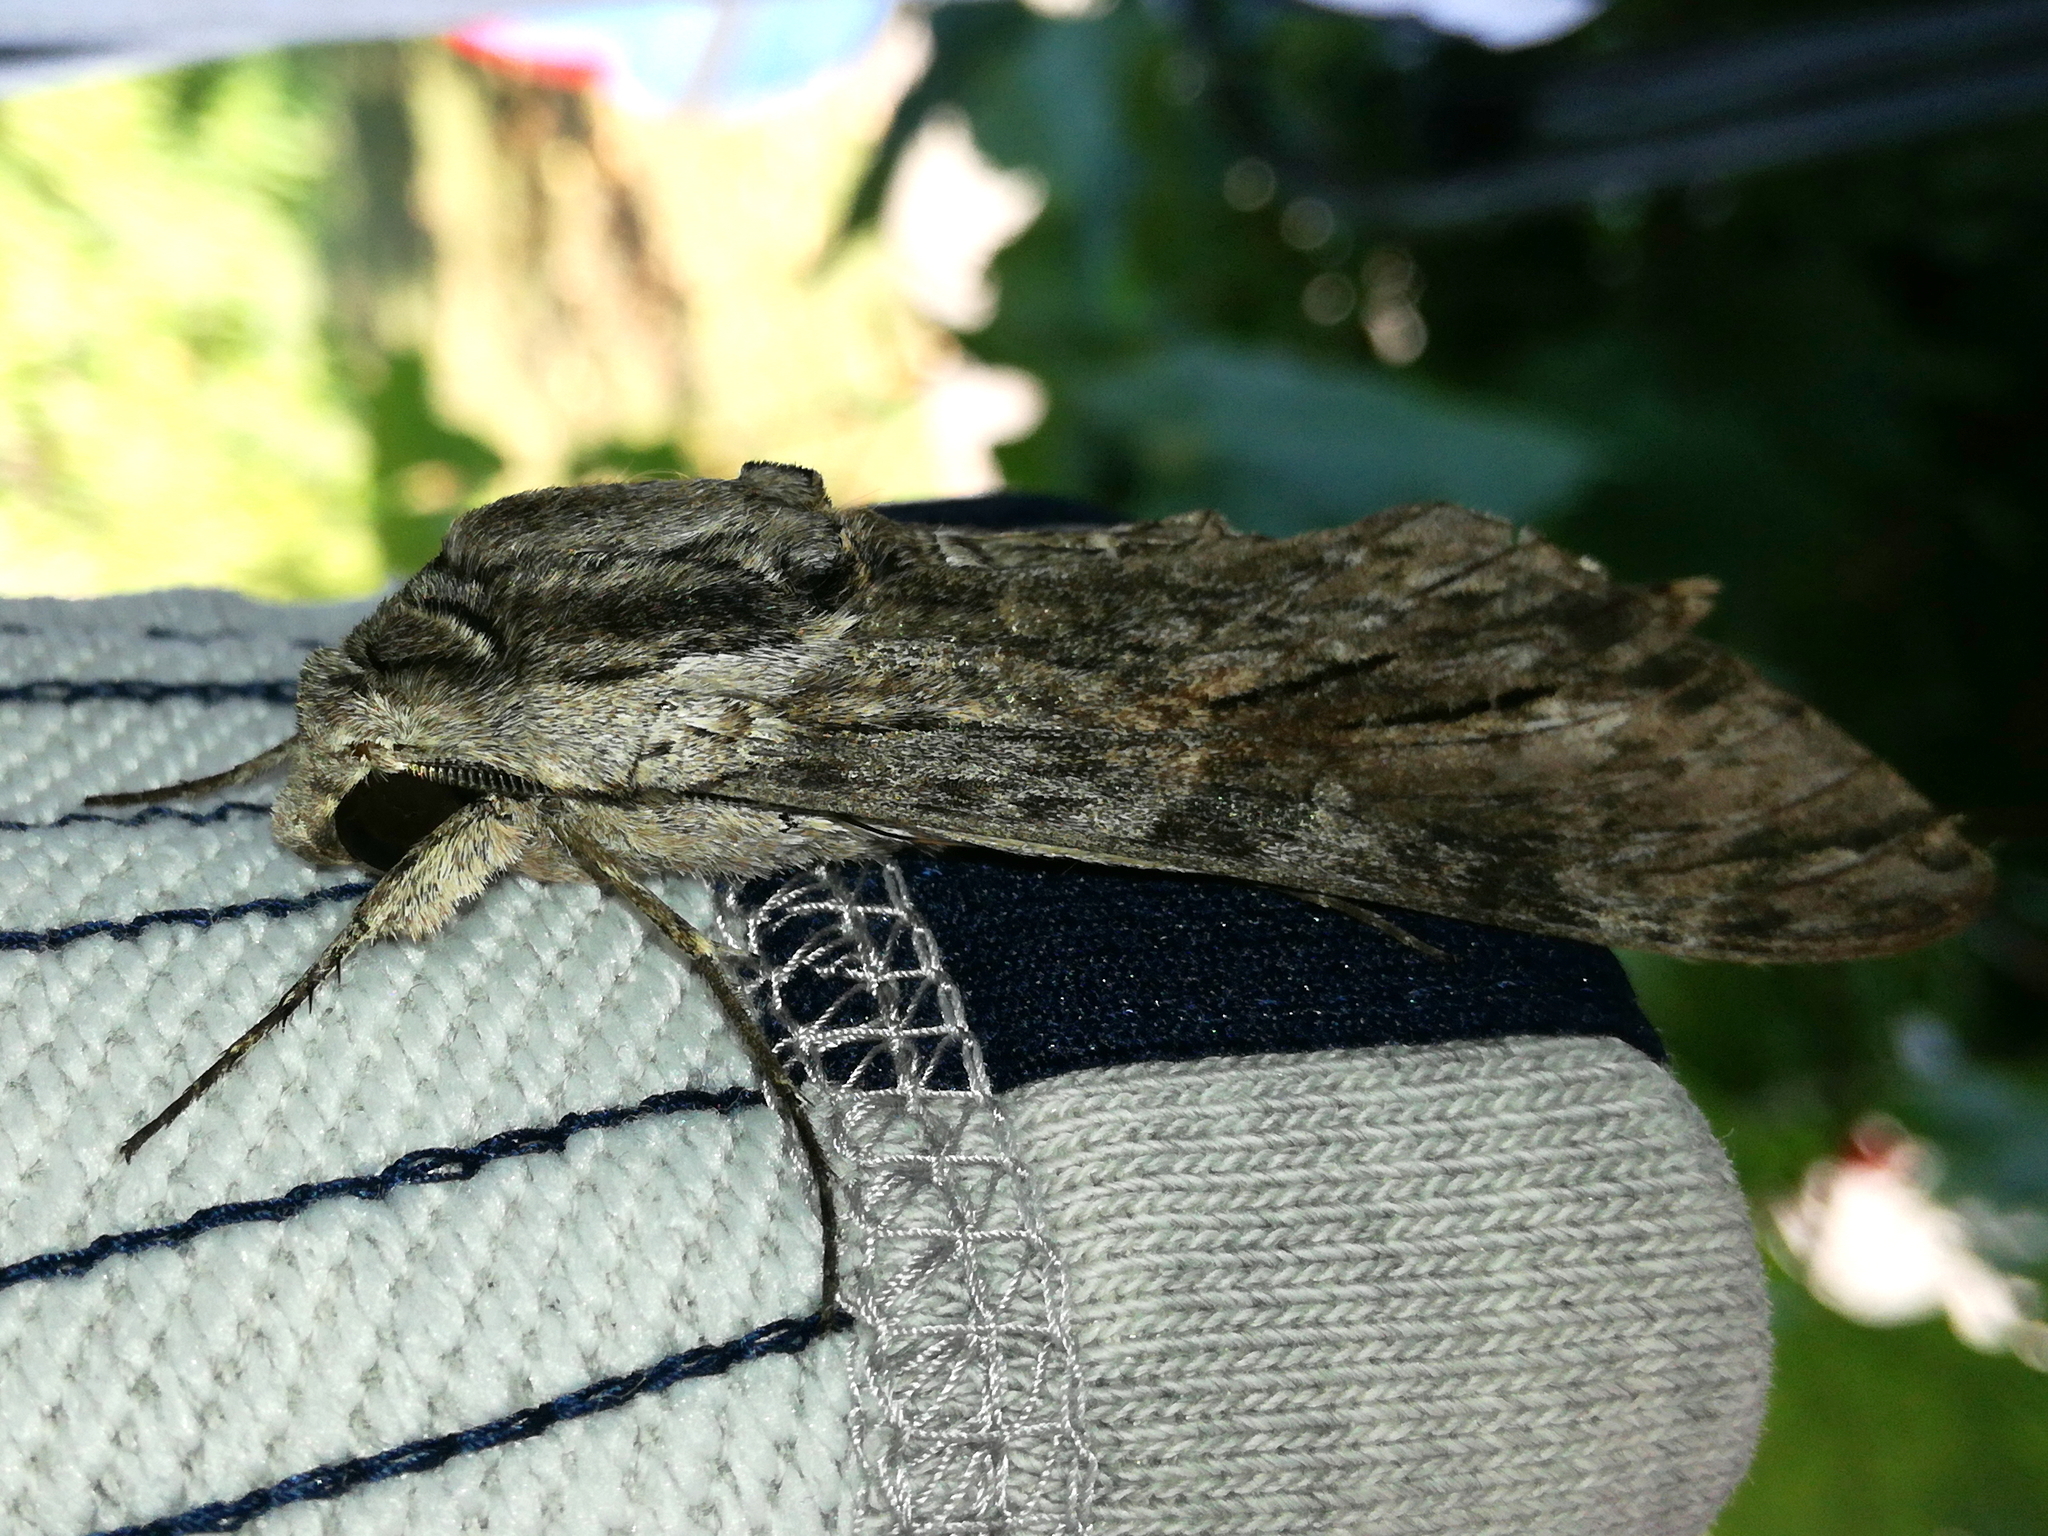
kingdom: Animalia
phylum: Arthropoda
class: Insecta
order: Lepidoptera
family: Sphingidae
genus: Agrius
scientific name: Agrius convolvuli
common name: Convolvulus hawkmoth
